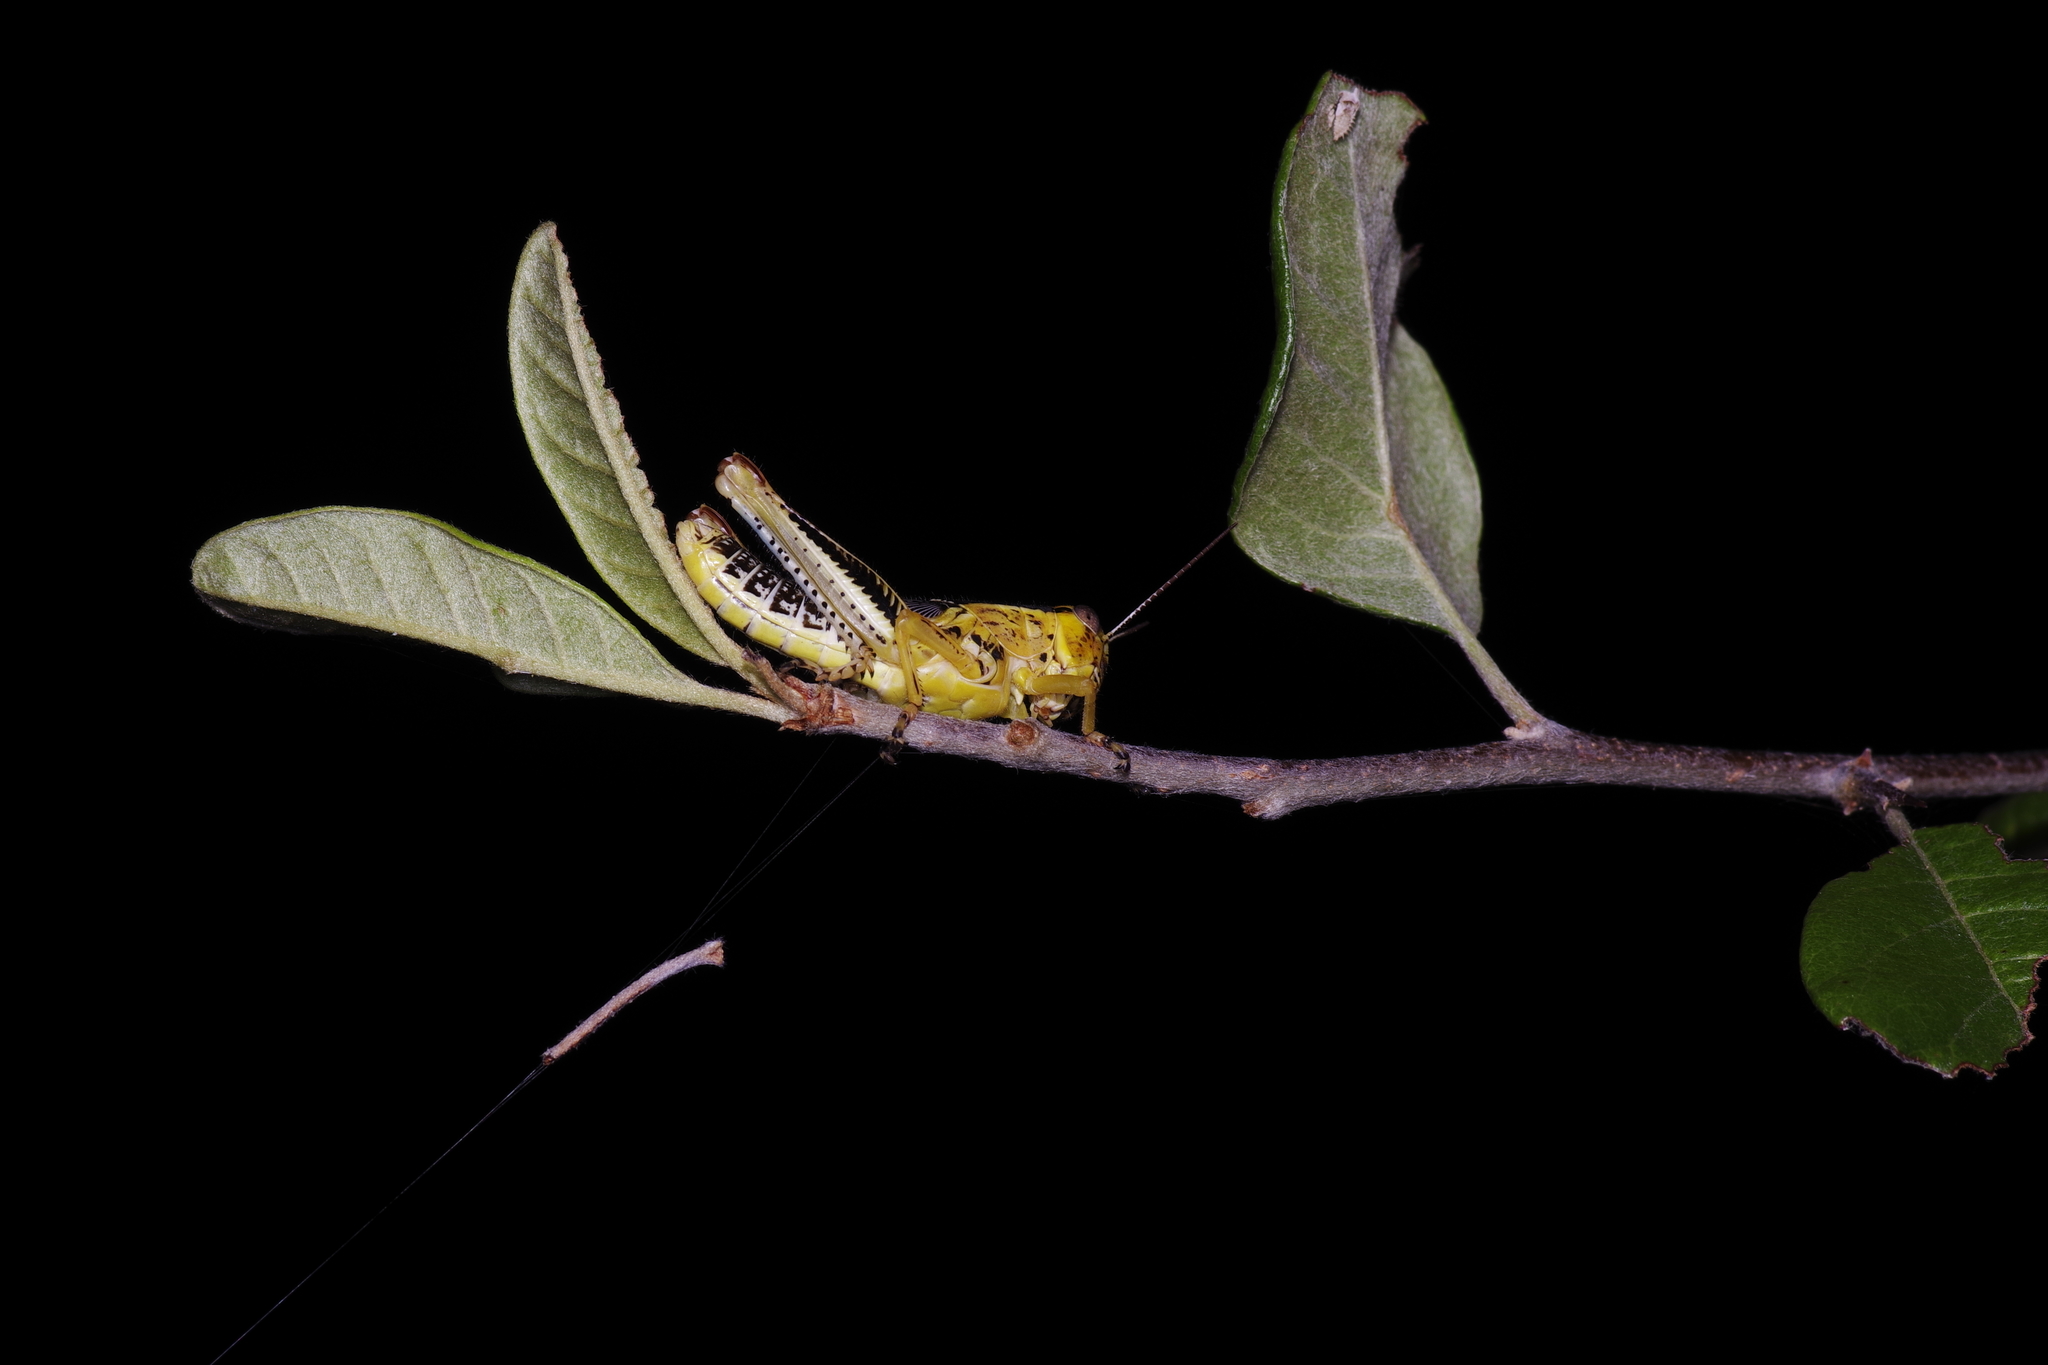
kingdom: Animalia
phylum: Arthropoda
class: Insecta
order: Orthoptera
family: Acrididae
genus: Melanoplus
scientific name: Melanoplus differentialis
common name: Differential grasshopper
